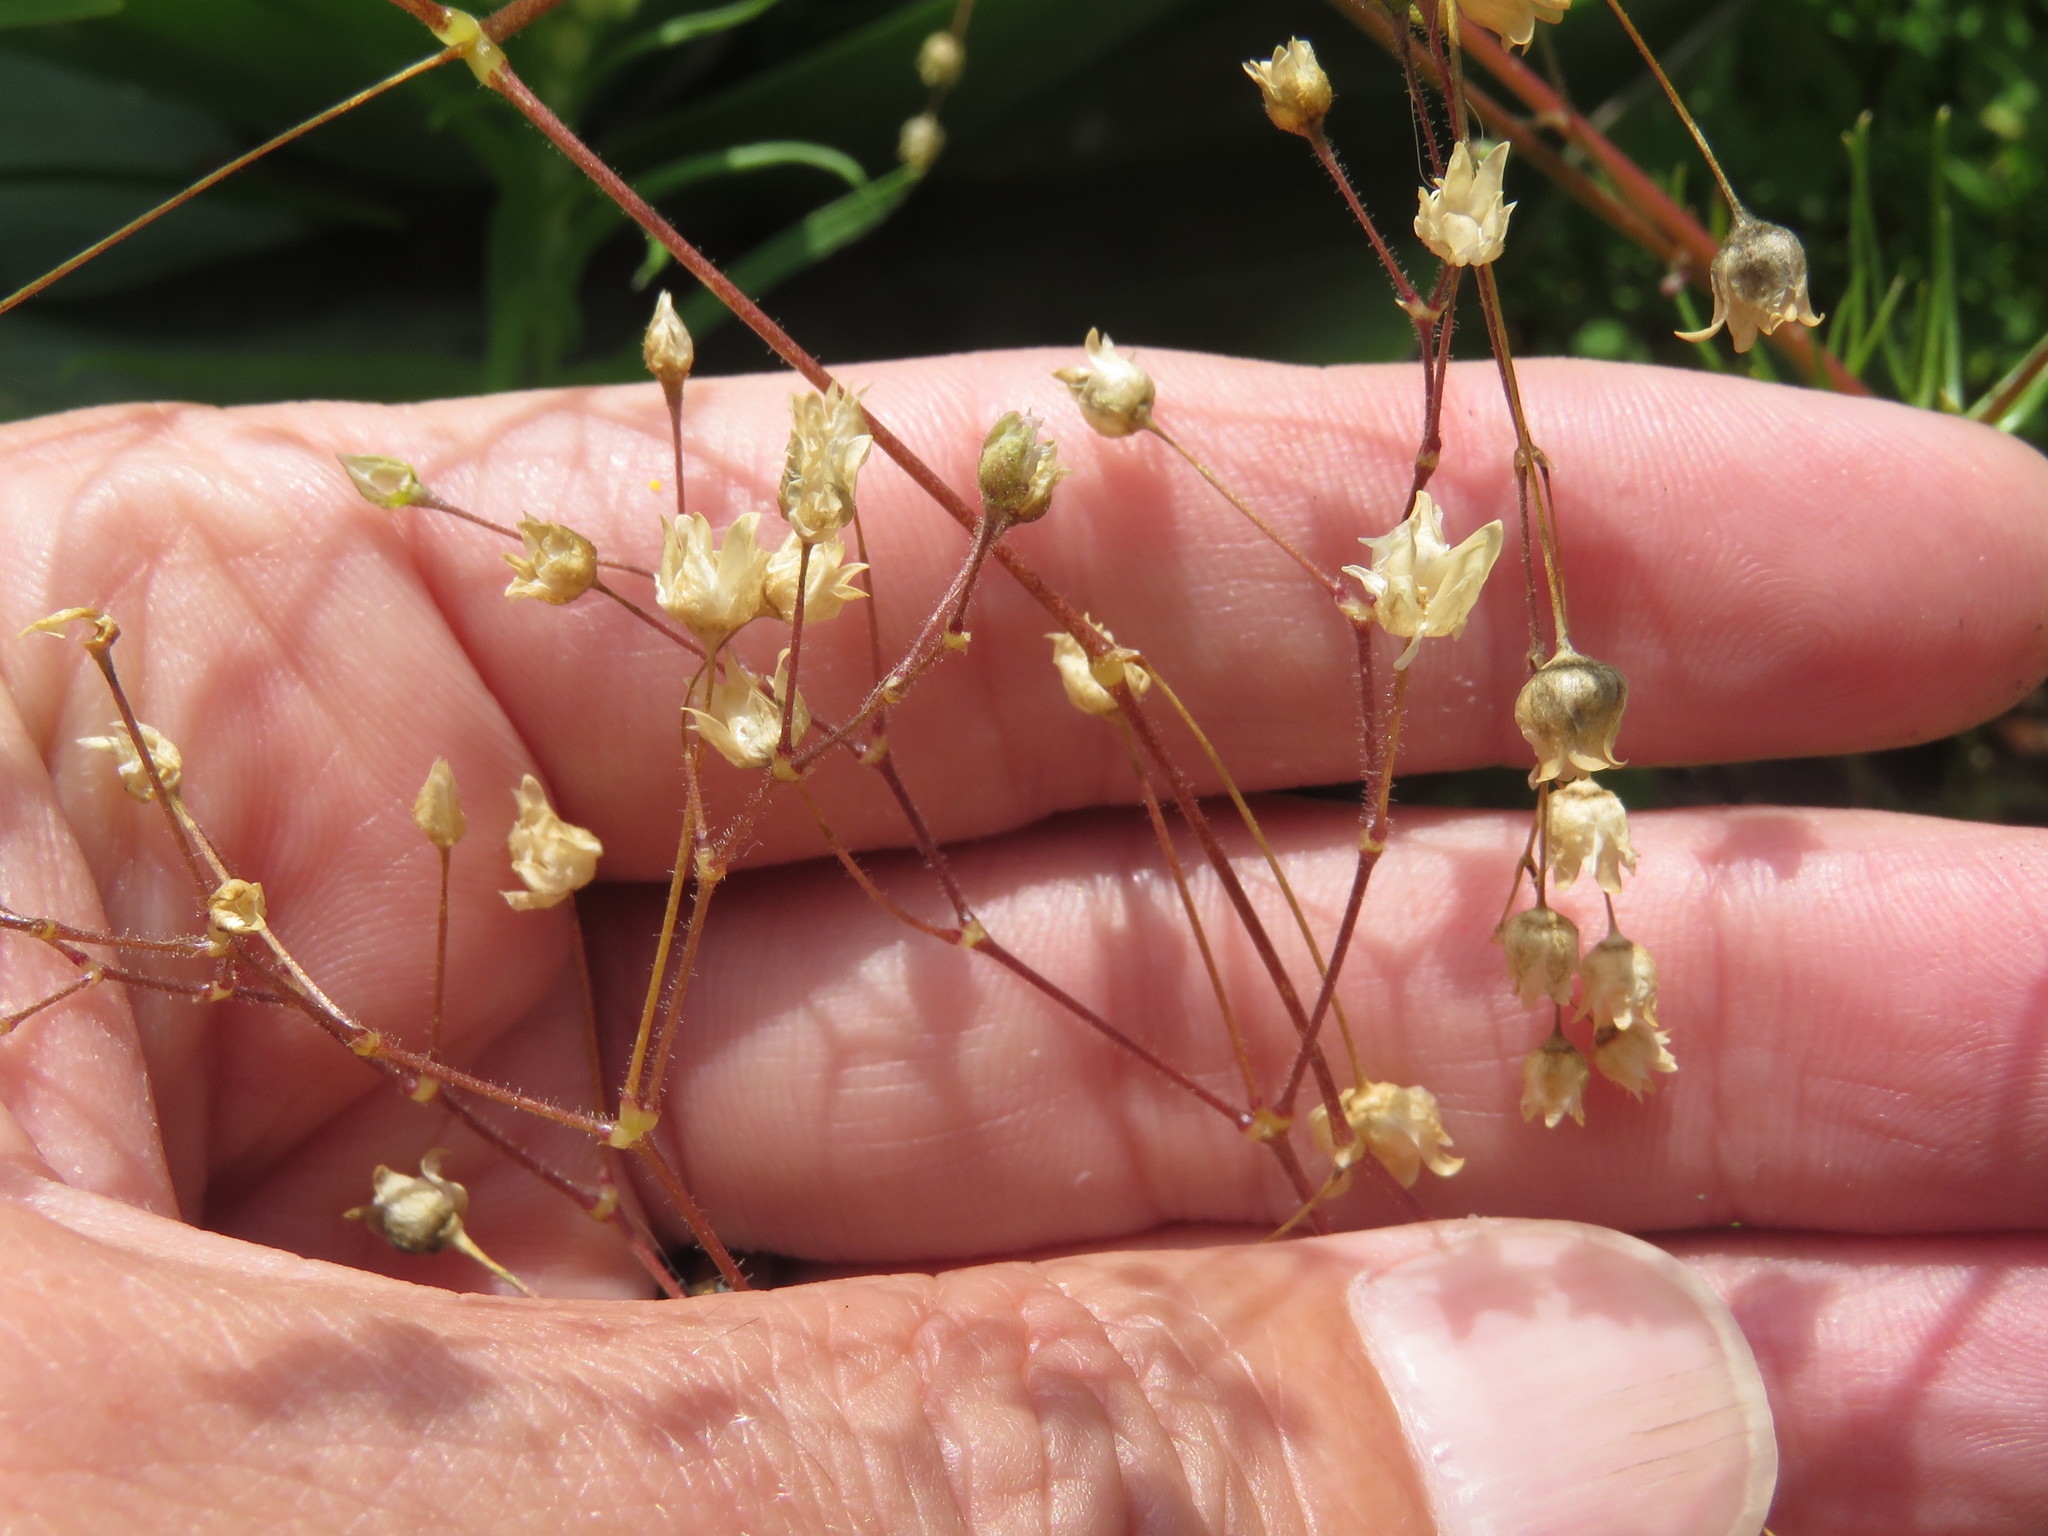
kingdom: Plantae
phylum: Tracheophyta
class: Magnoliopsida
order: Caryophyllales
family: Caryophyllaceae
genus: Spergula
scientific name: Spergula arvensis
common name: Corn spurrey
